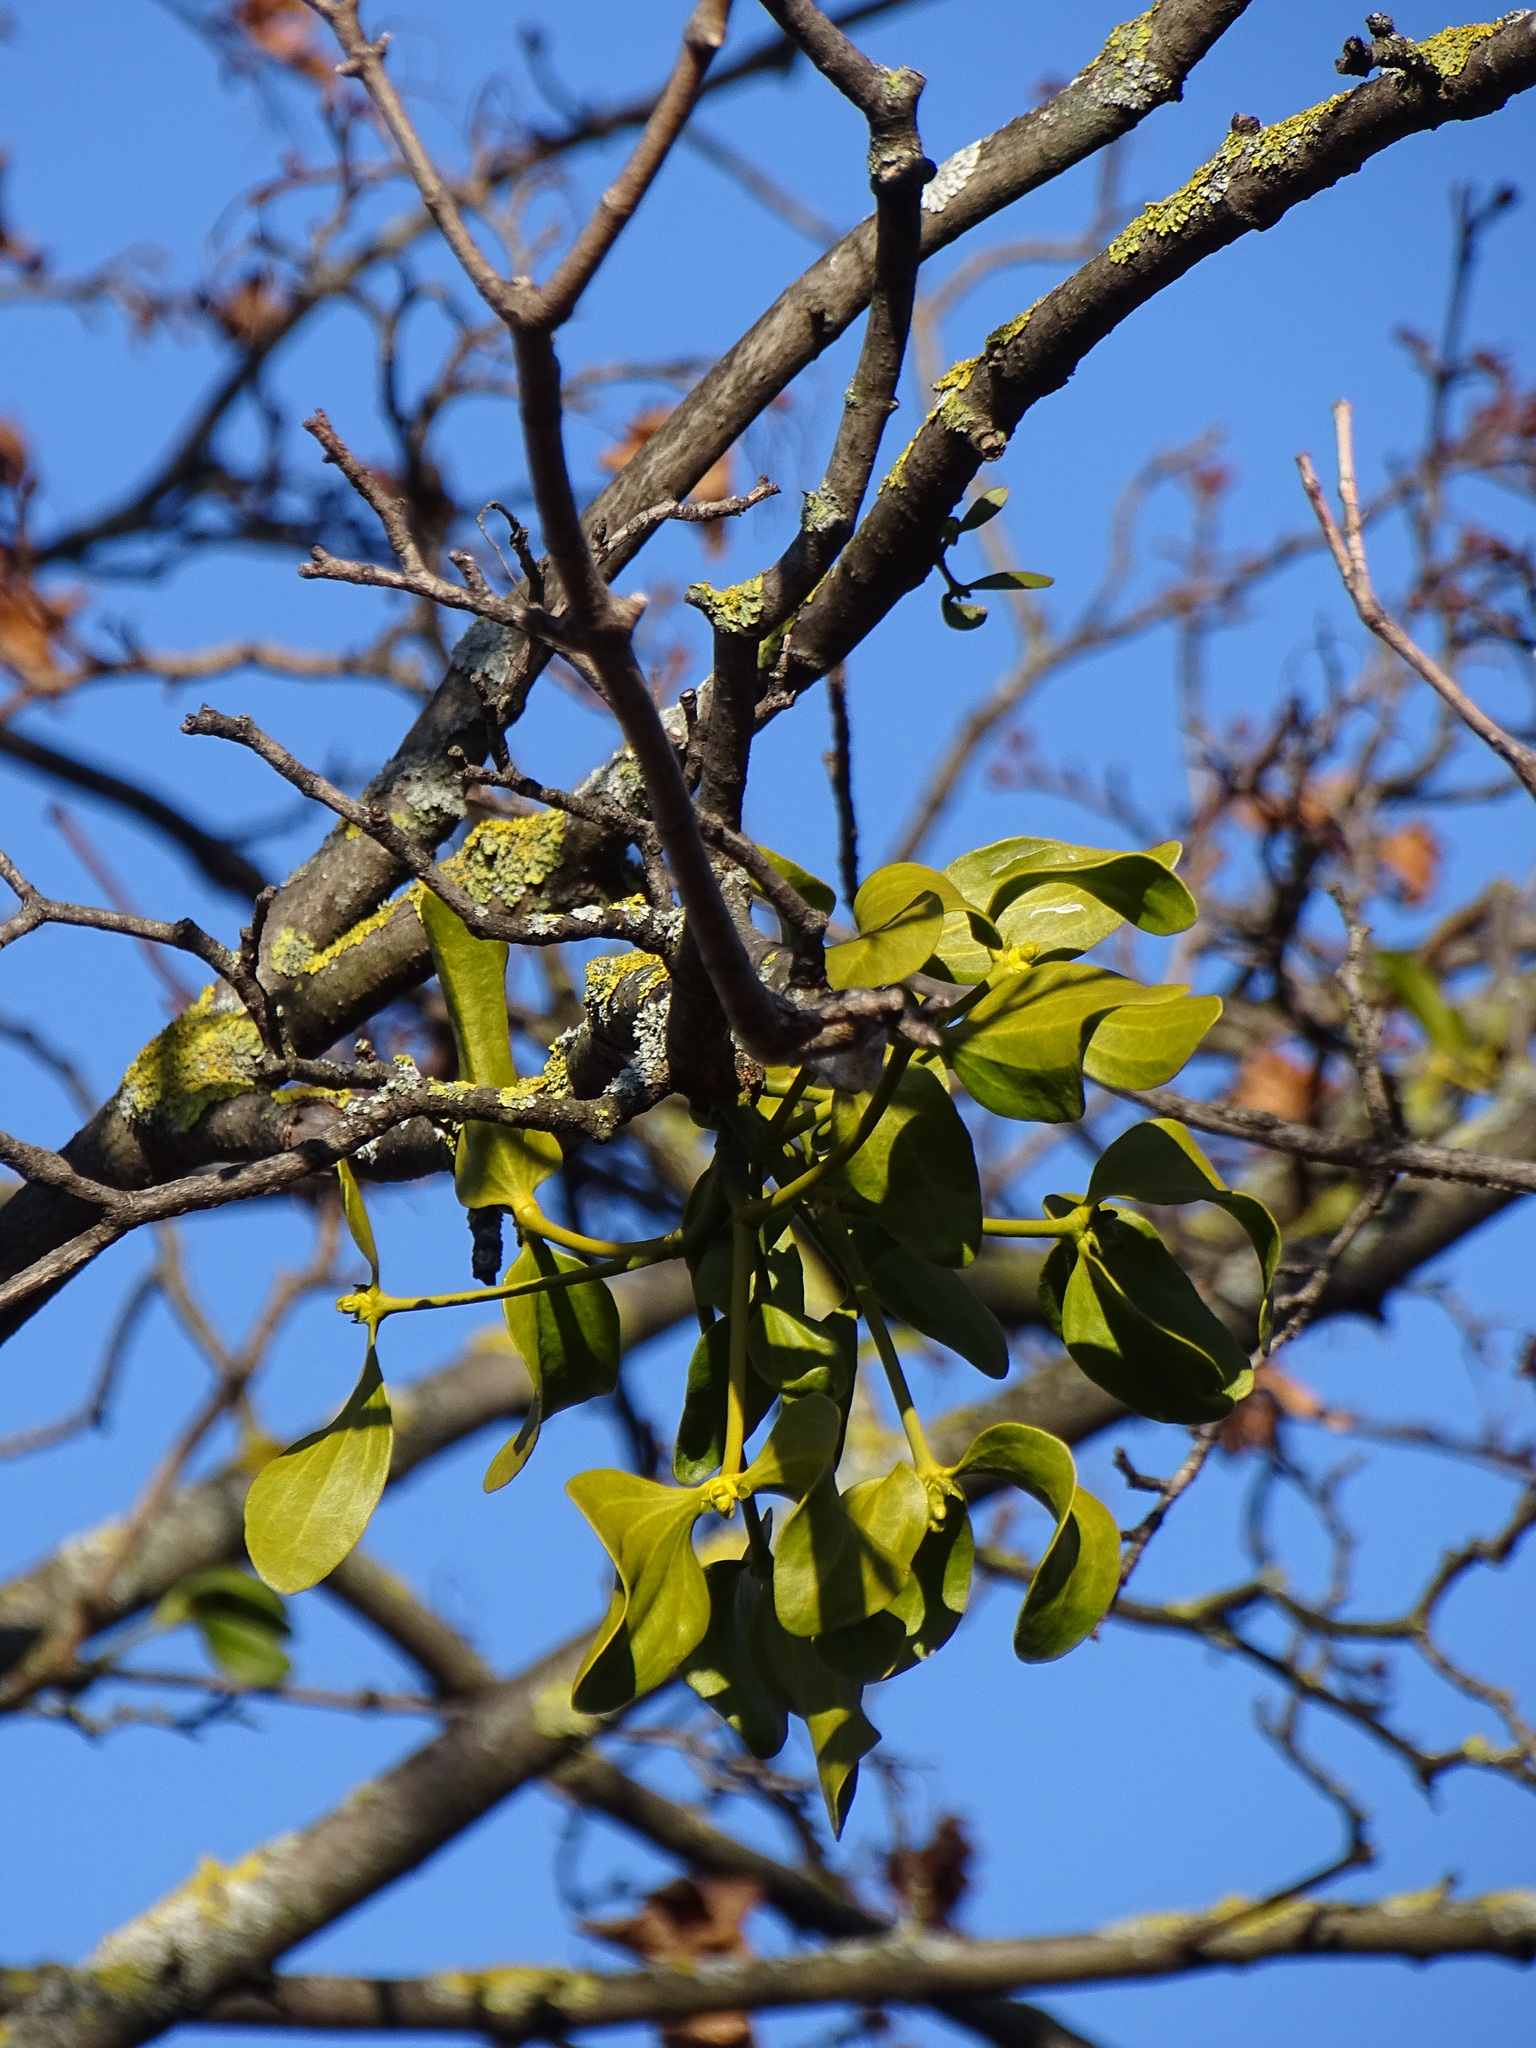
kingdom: Plantae
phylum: Tracheophyta
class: Magnoliopsida
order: Santalales
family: Viscaceae
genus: Viscum
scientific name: Viscum album
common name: Mistletoe
